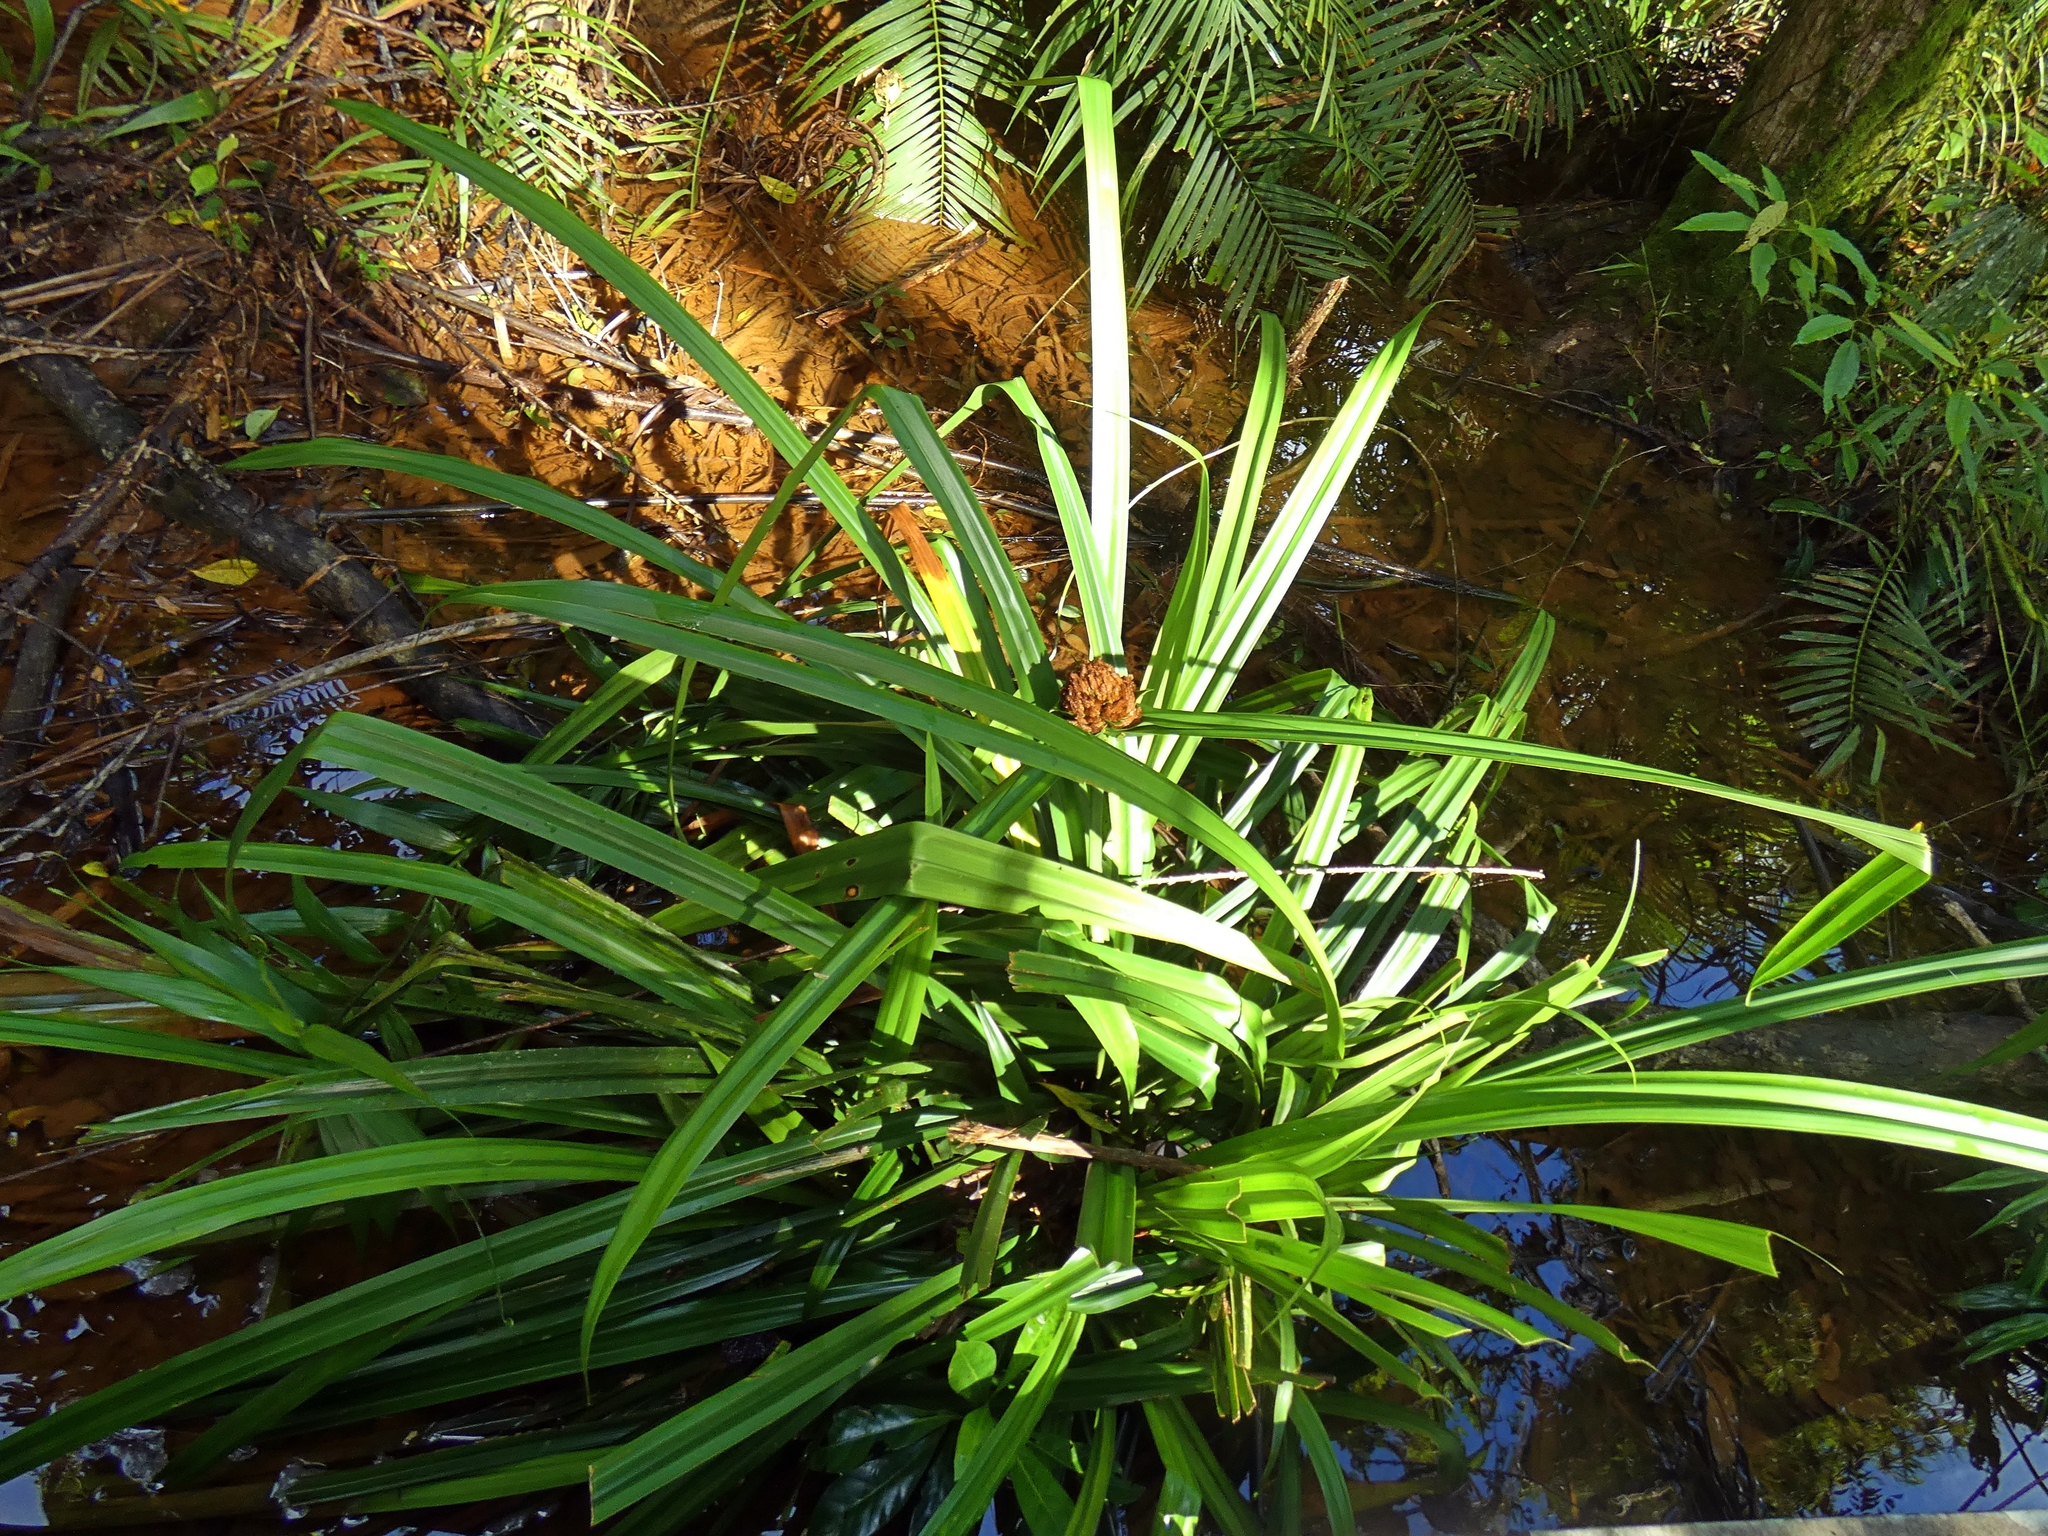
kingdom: Plantae
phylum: Tracheophyta
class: Liliopsida
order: Pandanales
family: Pandanaceae
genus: Benstonea
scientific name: Benstonea monticola
